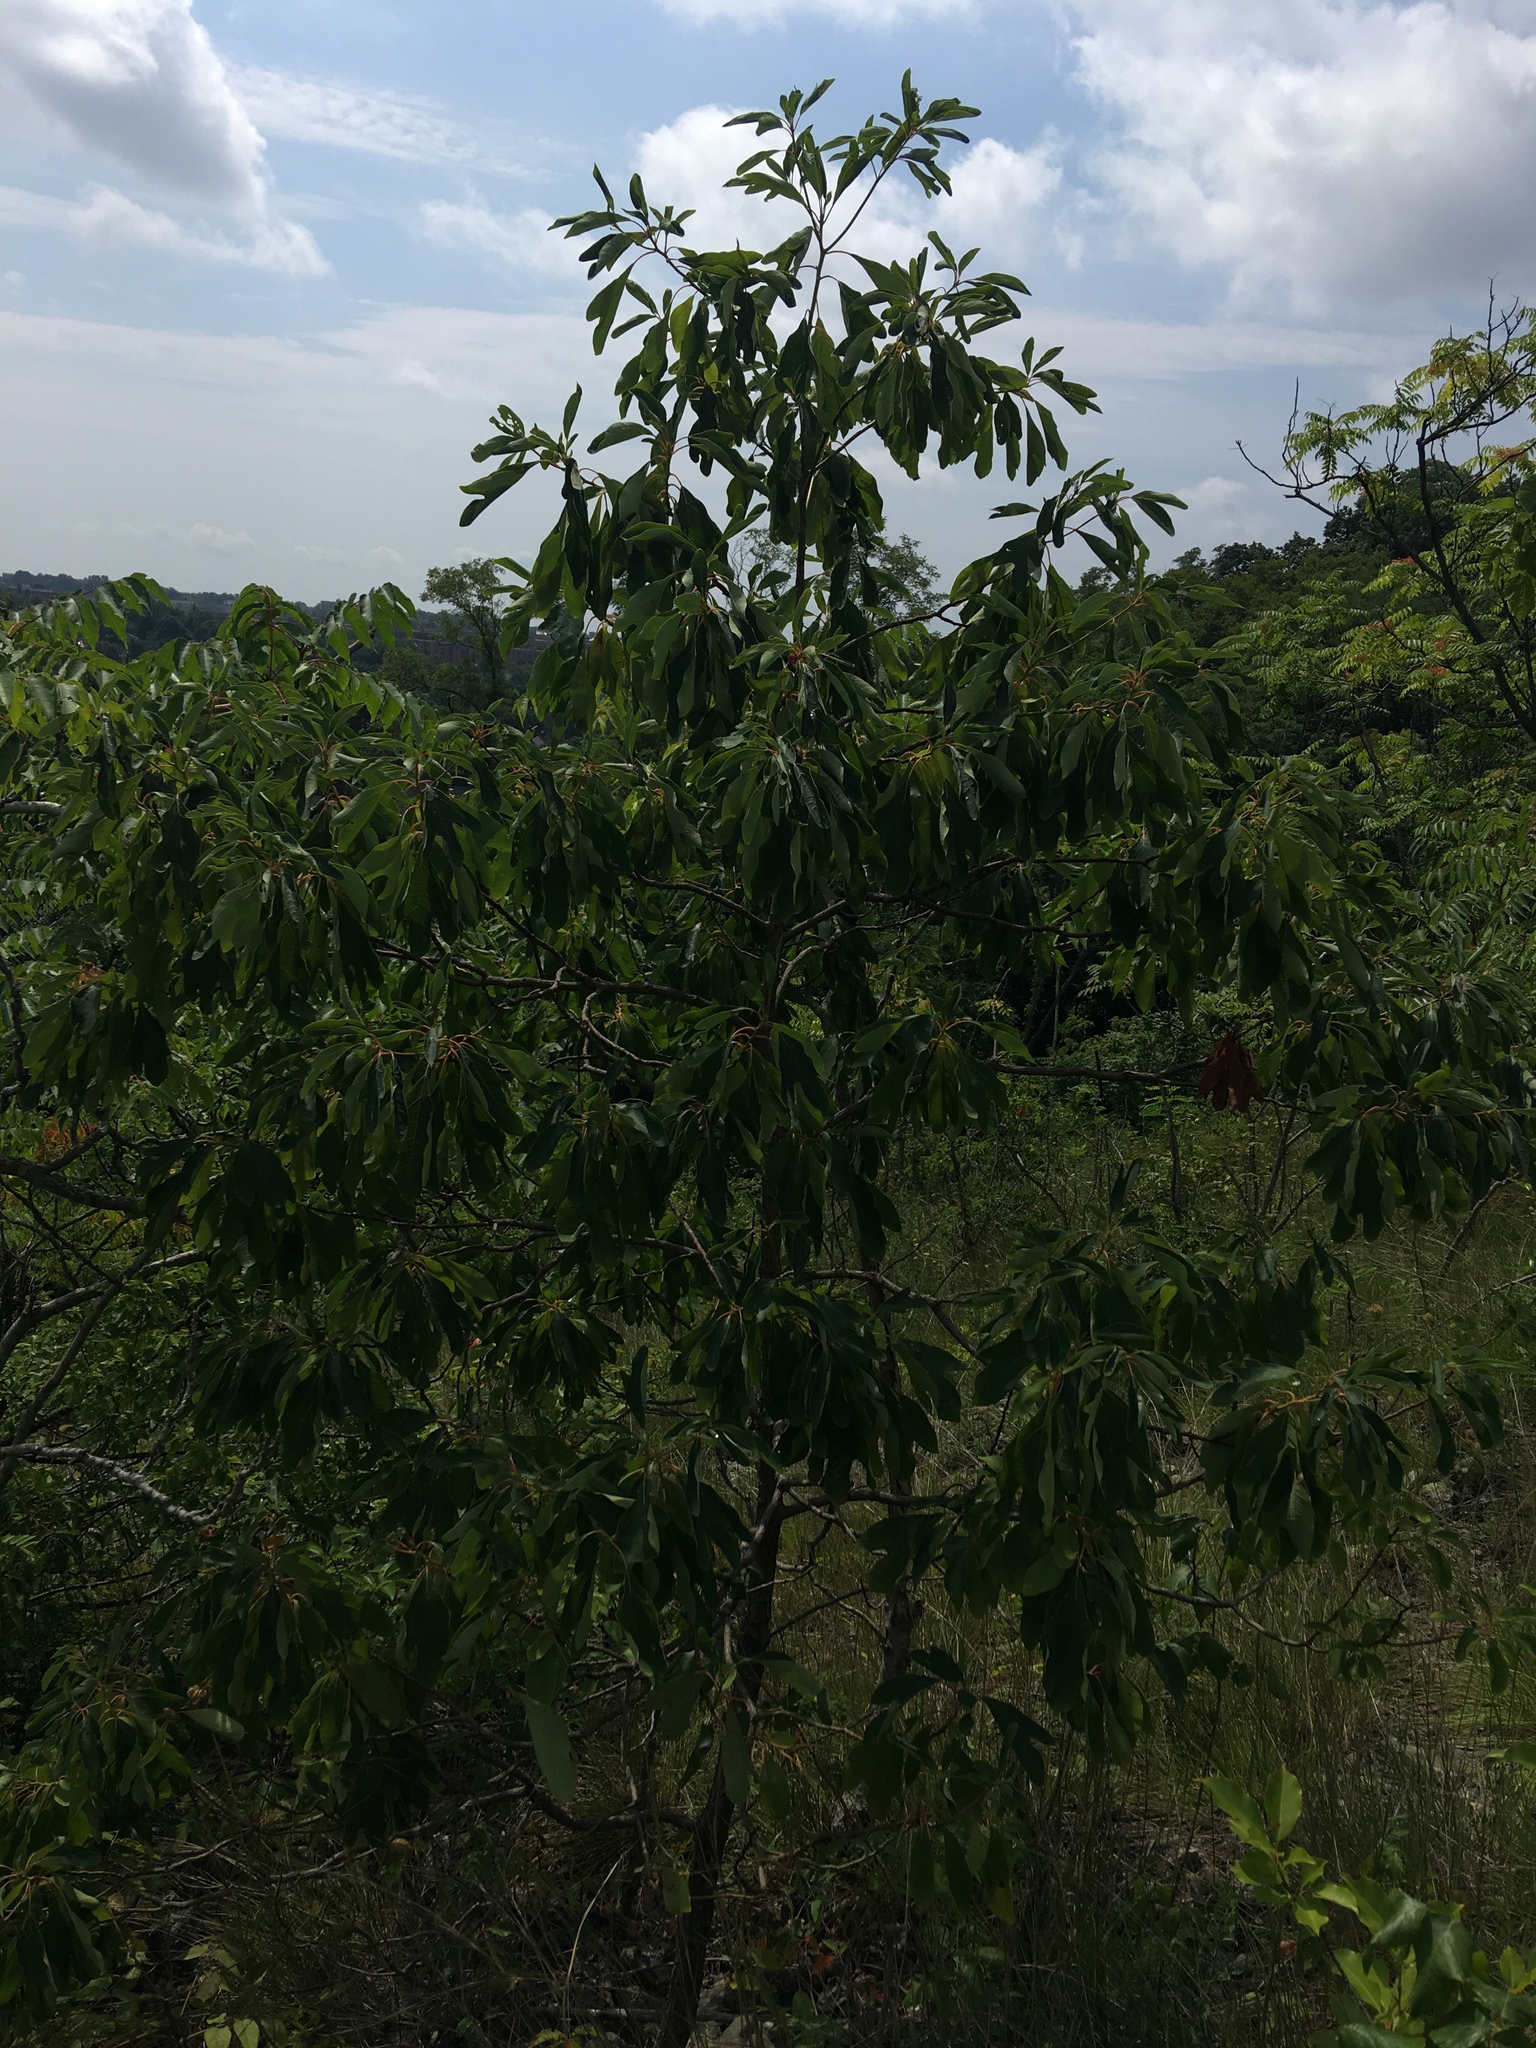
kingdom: Plantae
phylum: Tracheophyta
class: Magnoliopsida
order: Laurales
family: Lauraceae
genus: Sassafras
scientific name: Sassafras albidum
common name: Sassafras
